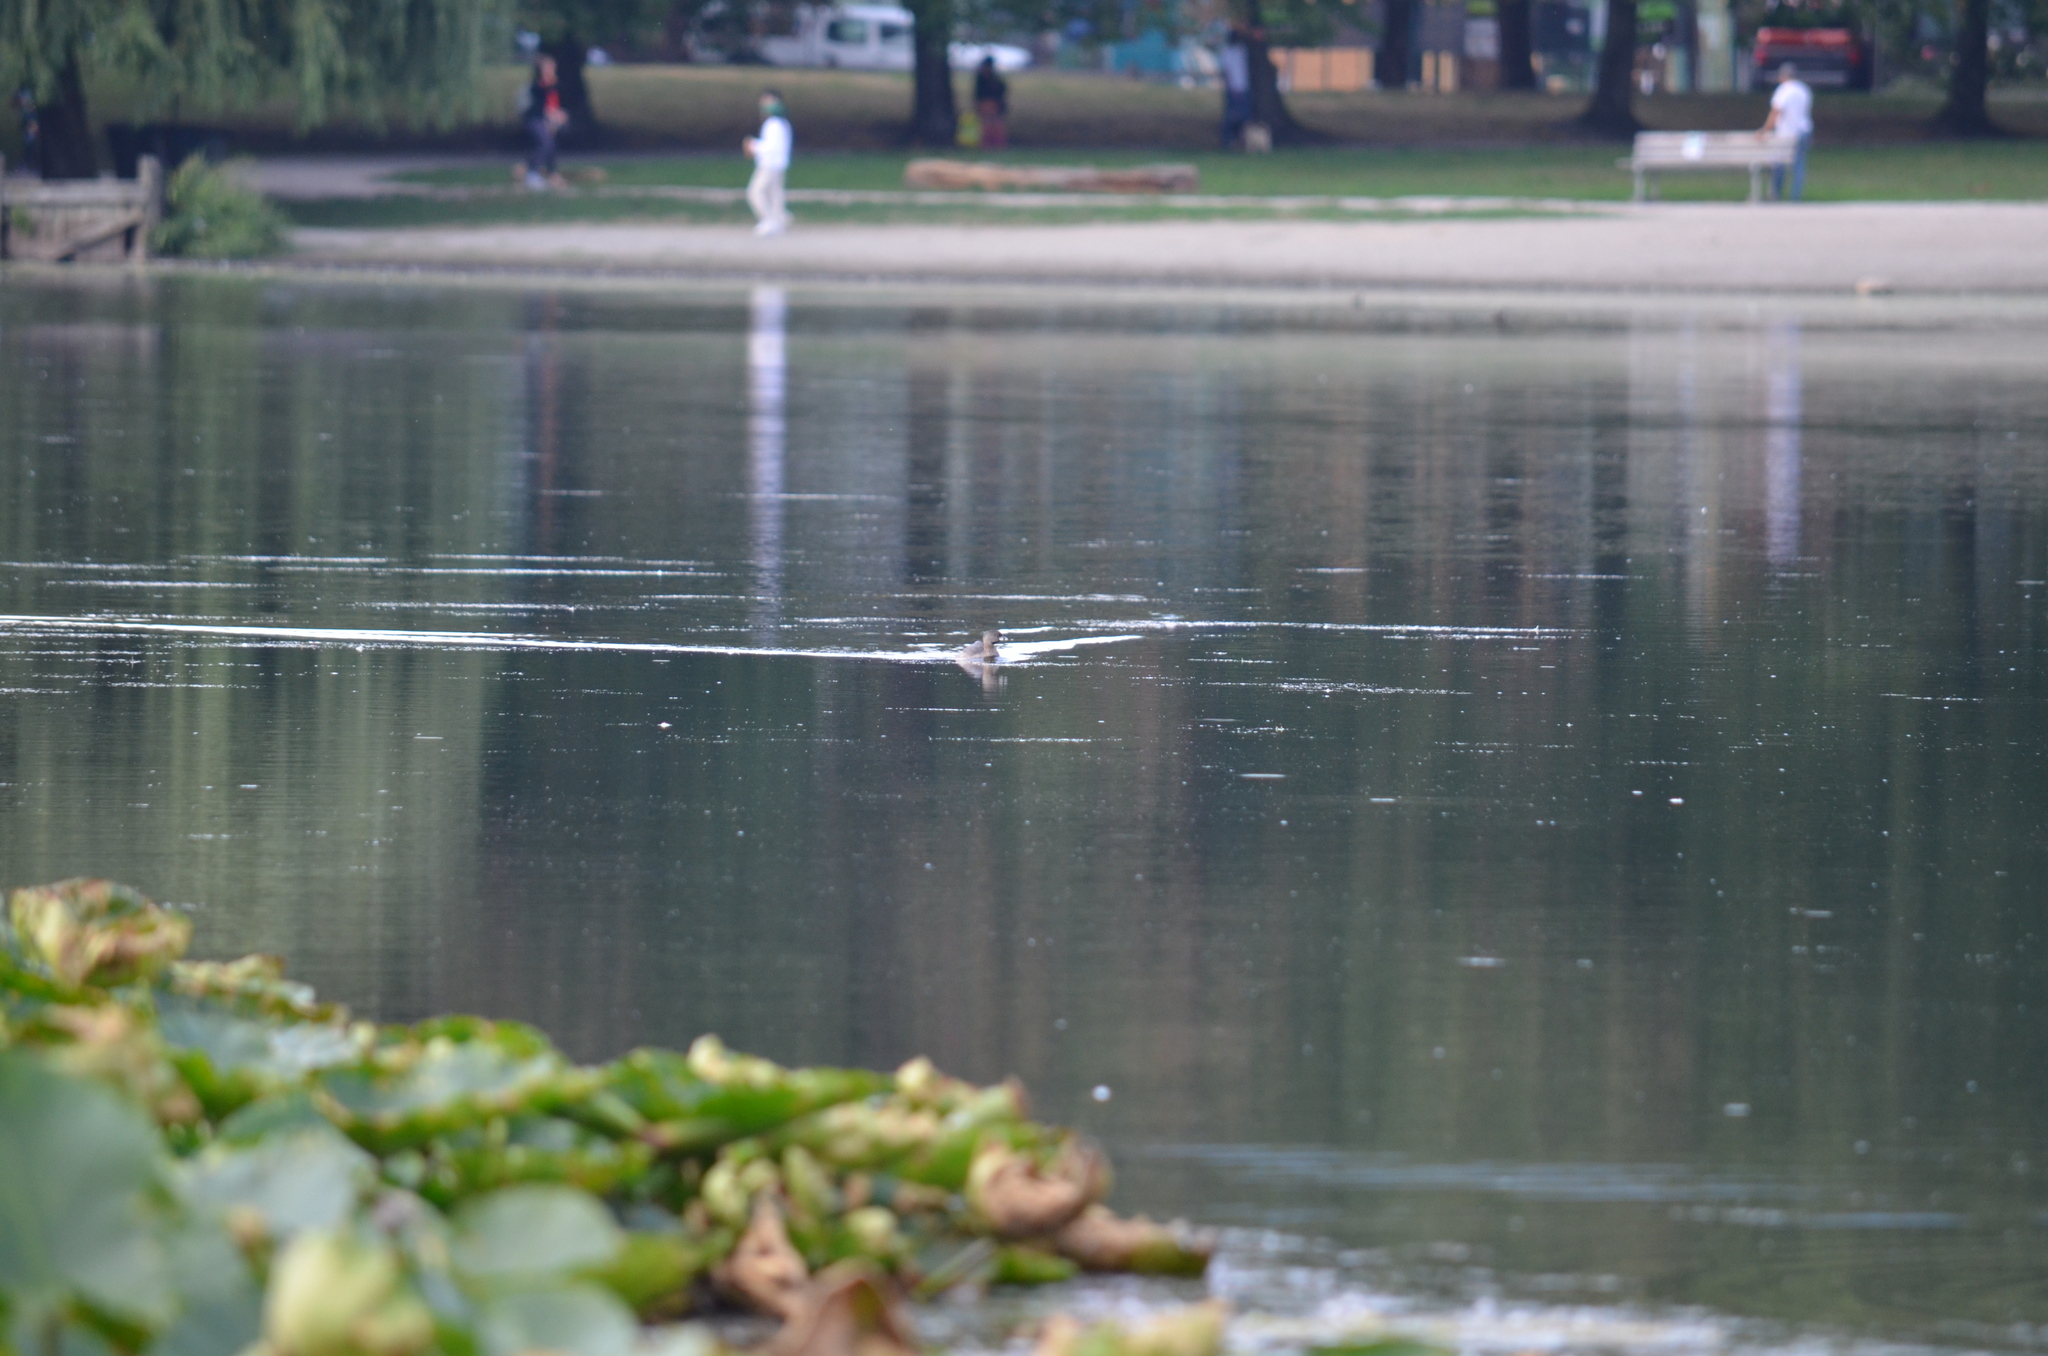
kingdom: Animalia
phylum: Chordata
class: Aves
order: Podicipediformes
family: Podicipedidae
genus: Podilymbus
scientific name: Podilymbus podiceps
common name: Pied-billed grebe
